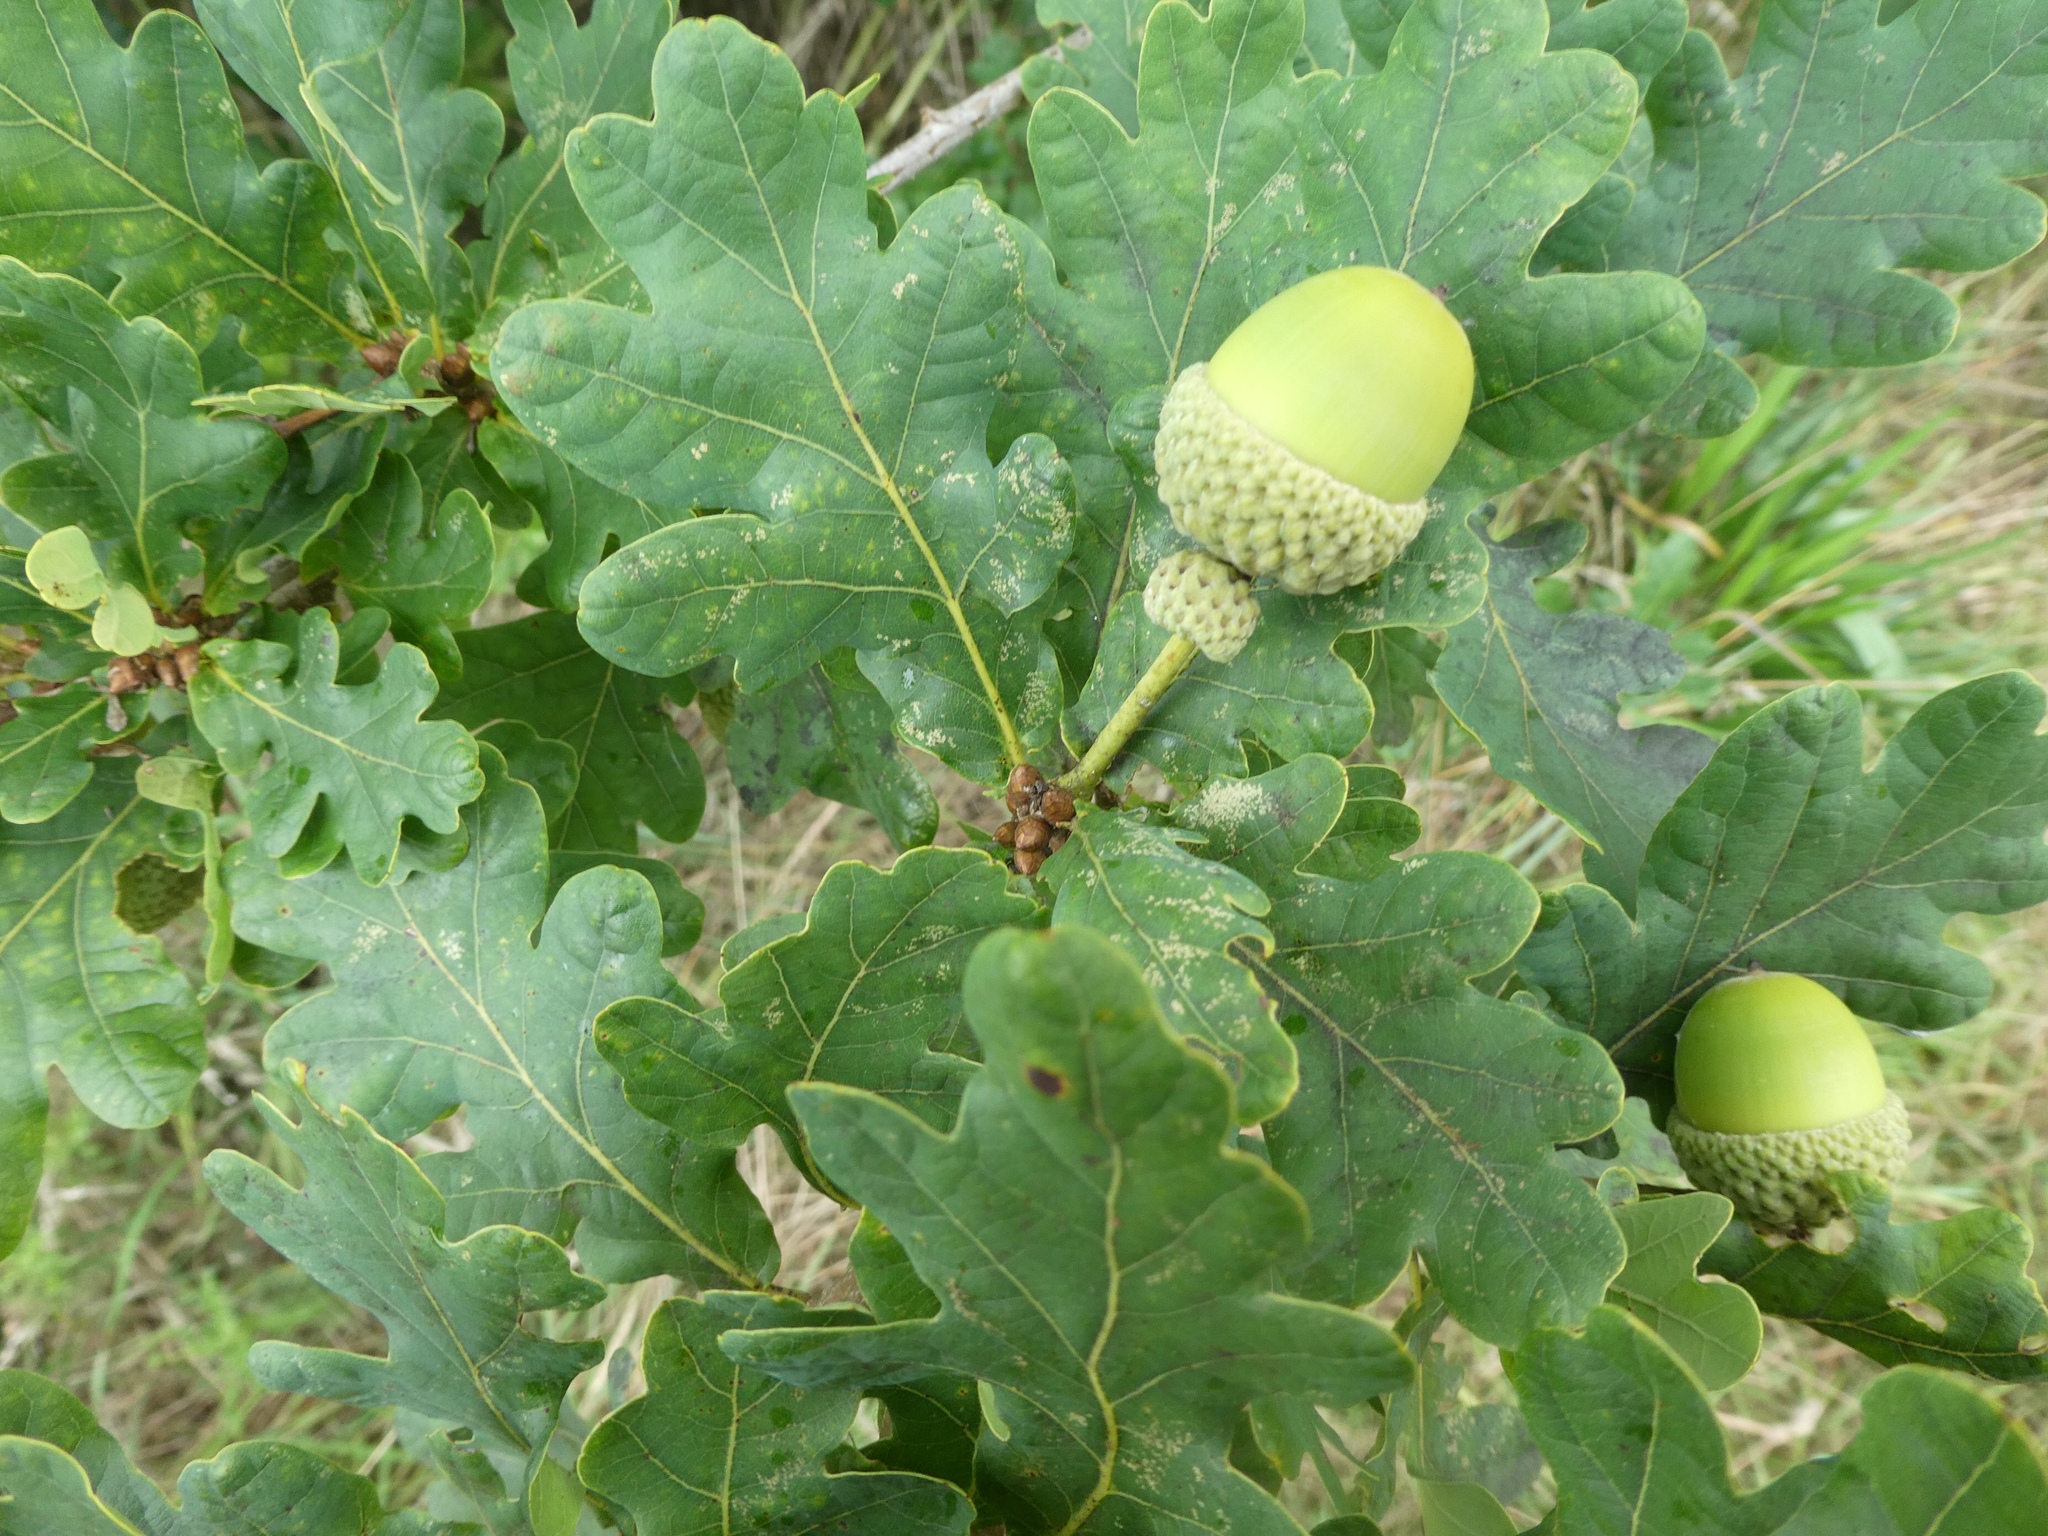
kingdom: Plantae
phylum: Tracheophyta
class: Magnoliopsida
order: Fagales
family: Fagaceae
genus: Quercus
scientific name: Quercus robur
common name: Pedunculate oak
